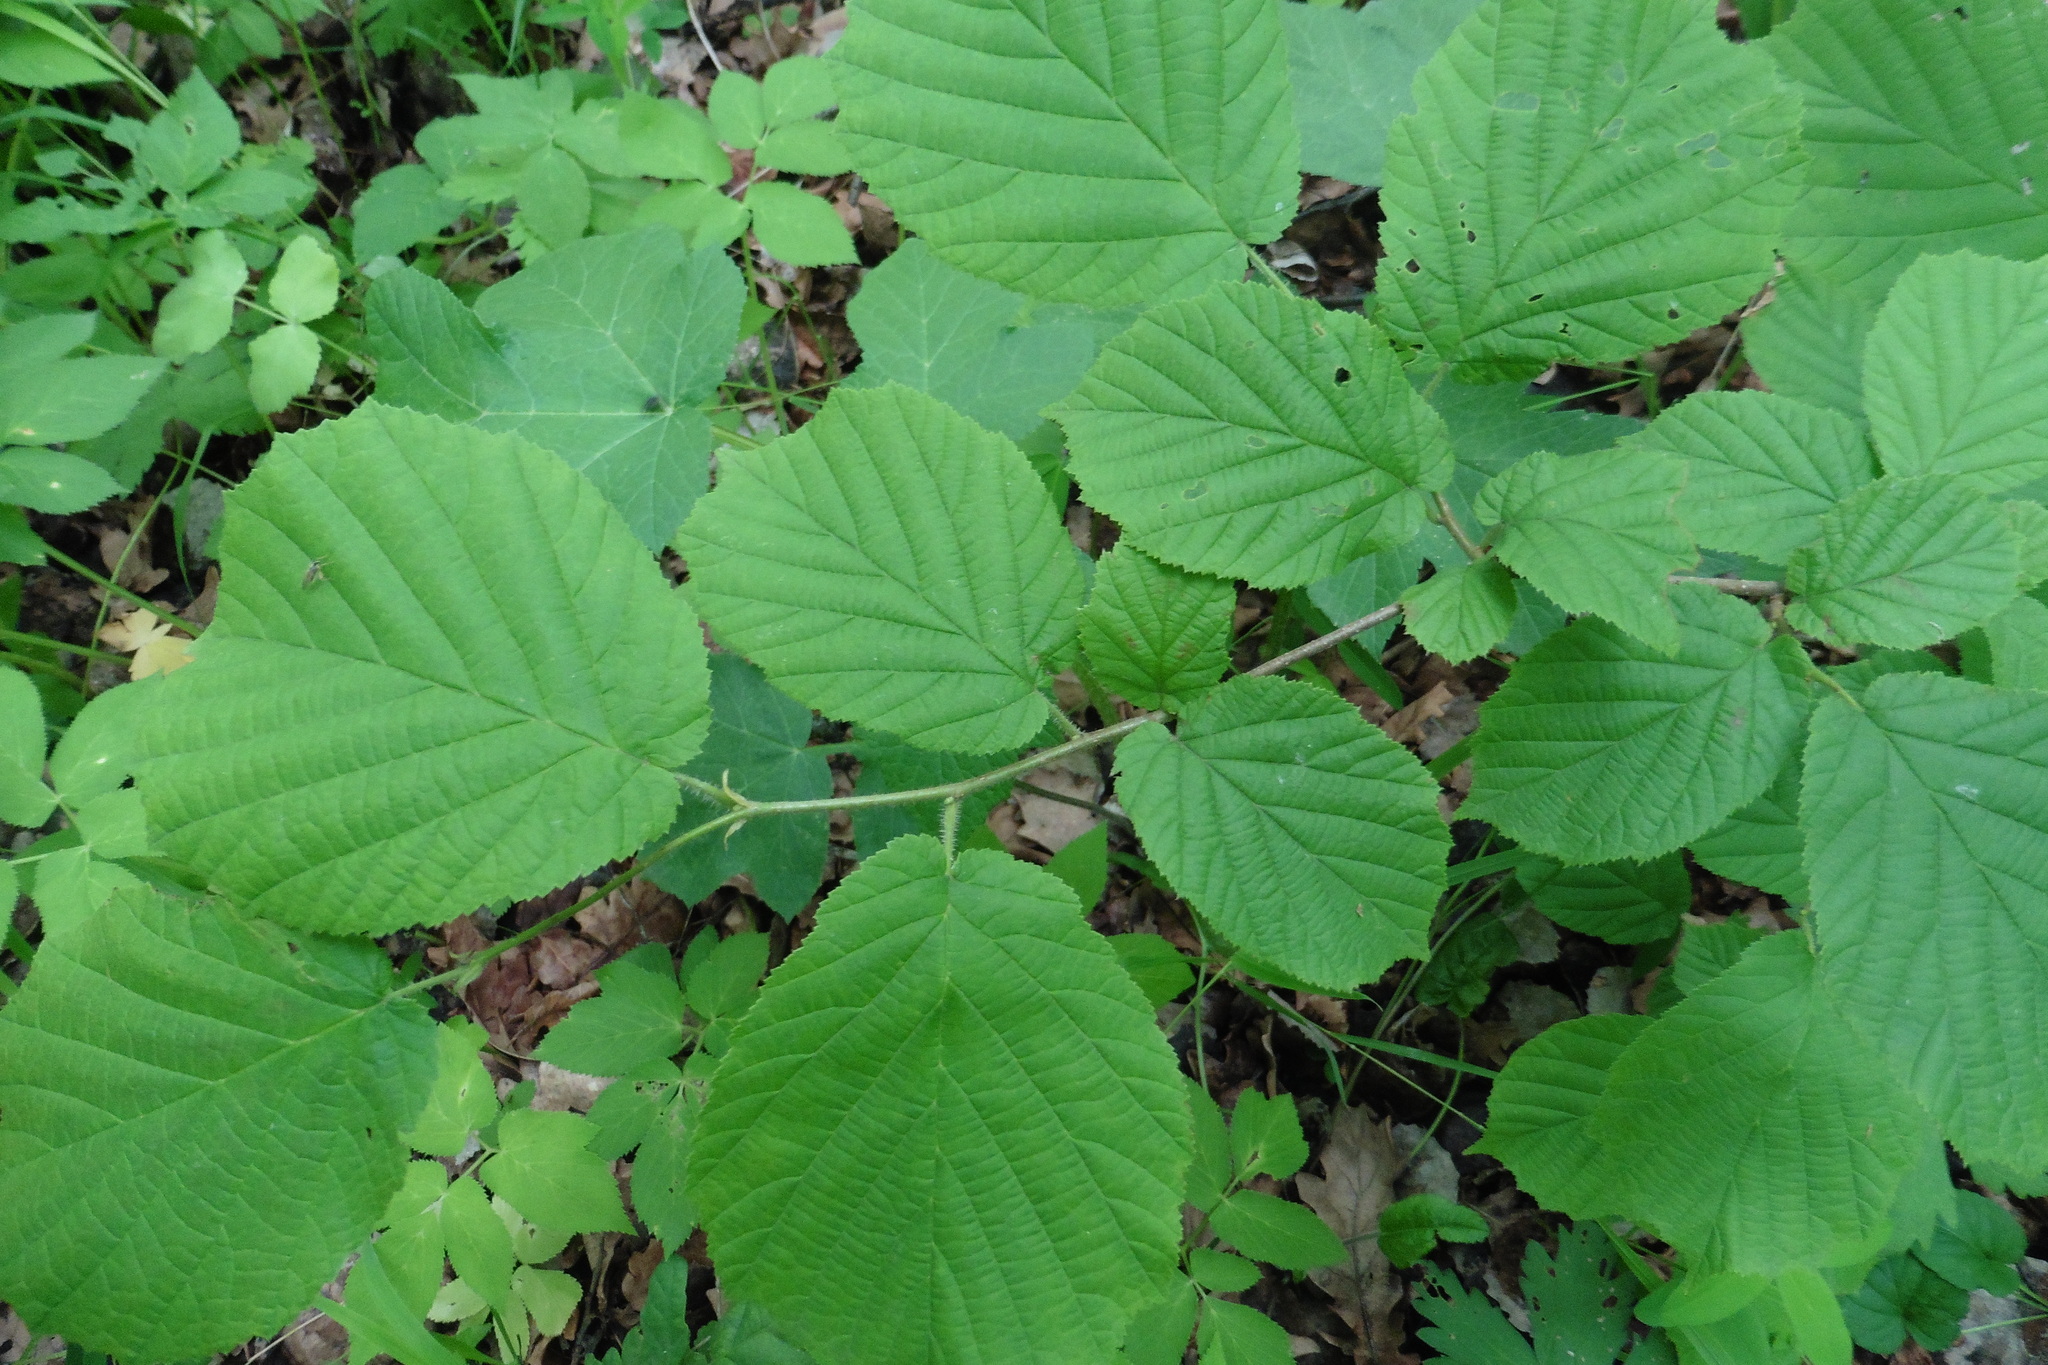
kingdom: Plantae
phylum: Tracheophyta
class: Magnoliopsida
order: Fagales
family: Betulaceae
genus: Corylus
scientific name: Corylus avellana
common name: European hazel
